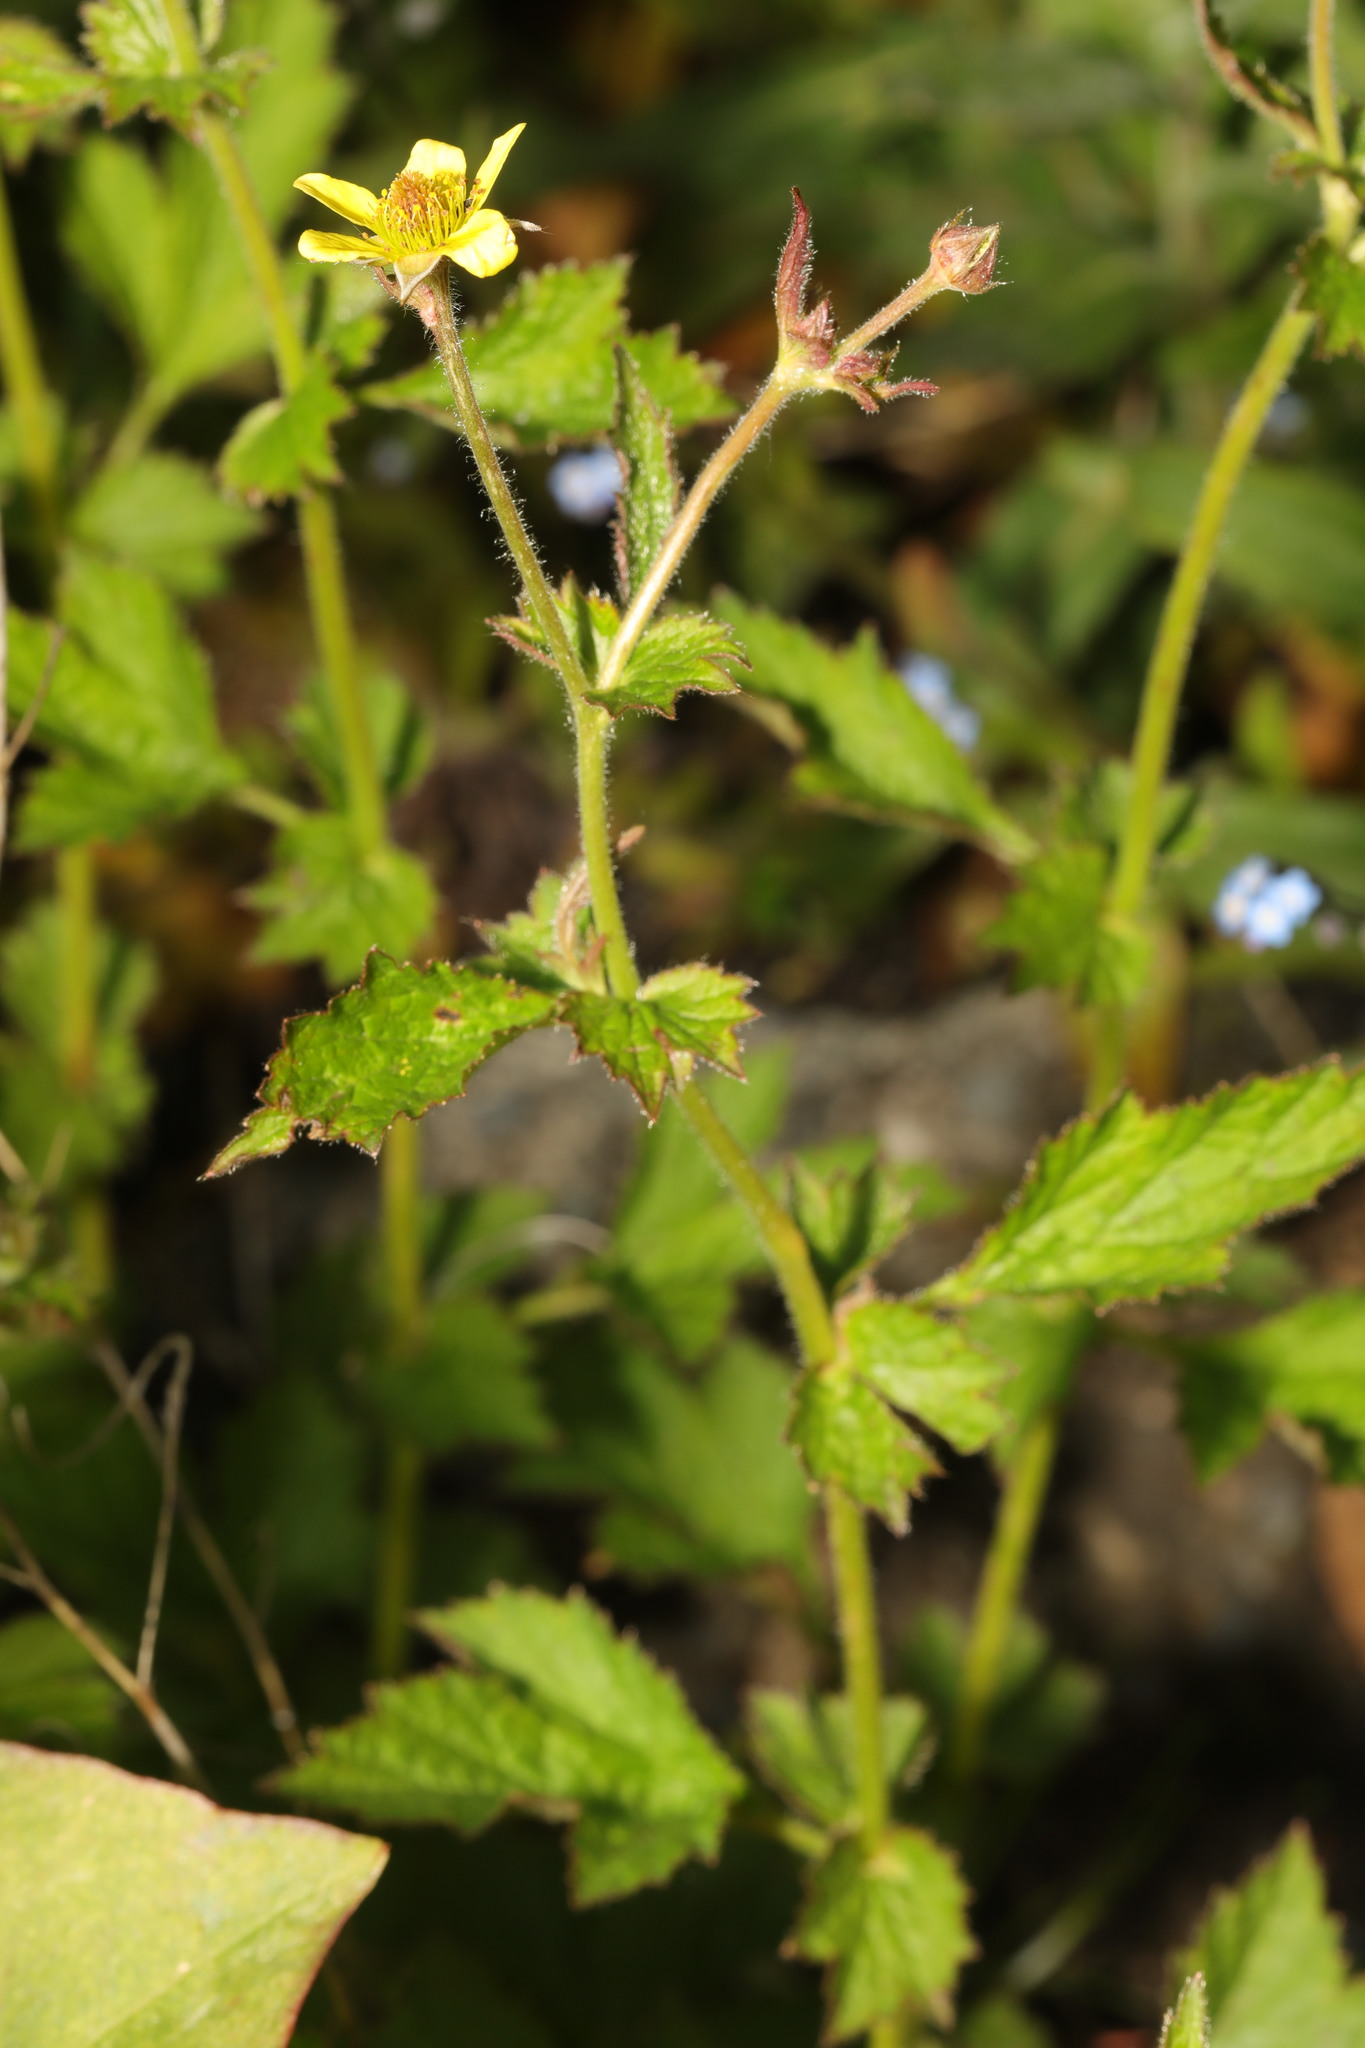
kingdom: Plantae
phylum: Tracheophyta
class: Magnoliopsida
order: Rosales
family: Rosaceae
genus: Geum
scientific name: Geum urbanum
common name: Wood avens
